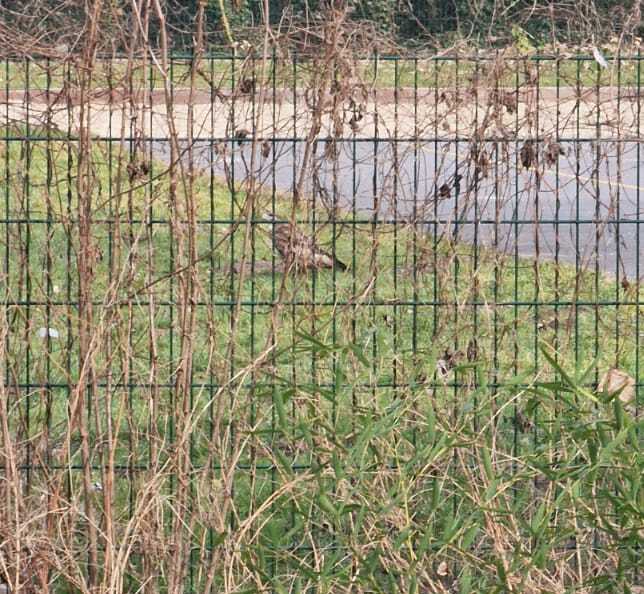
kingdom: Animalia
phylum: Chordata
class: Aves
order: Accipitriformes
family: Accipitridae
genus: Buteo
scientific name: Buteo buteo
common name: Common buzzard
